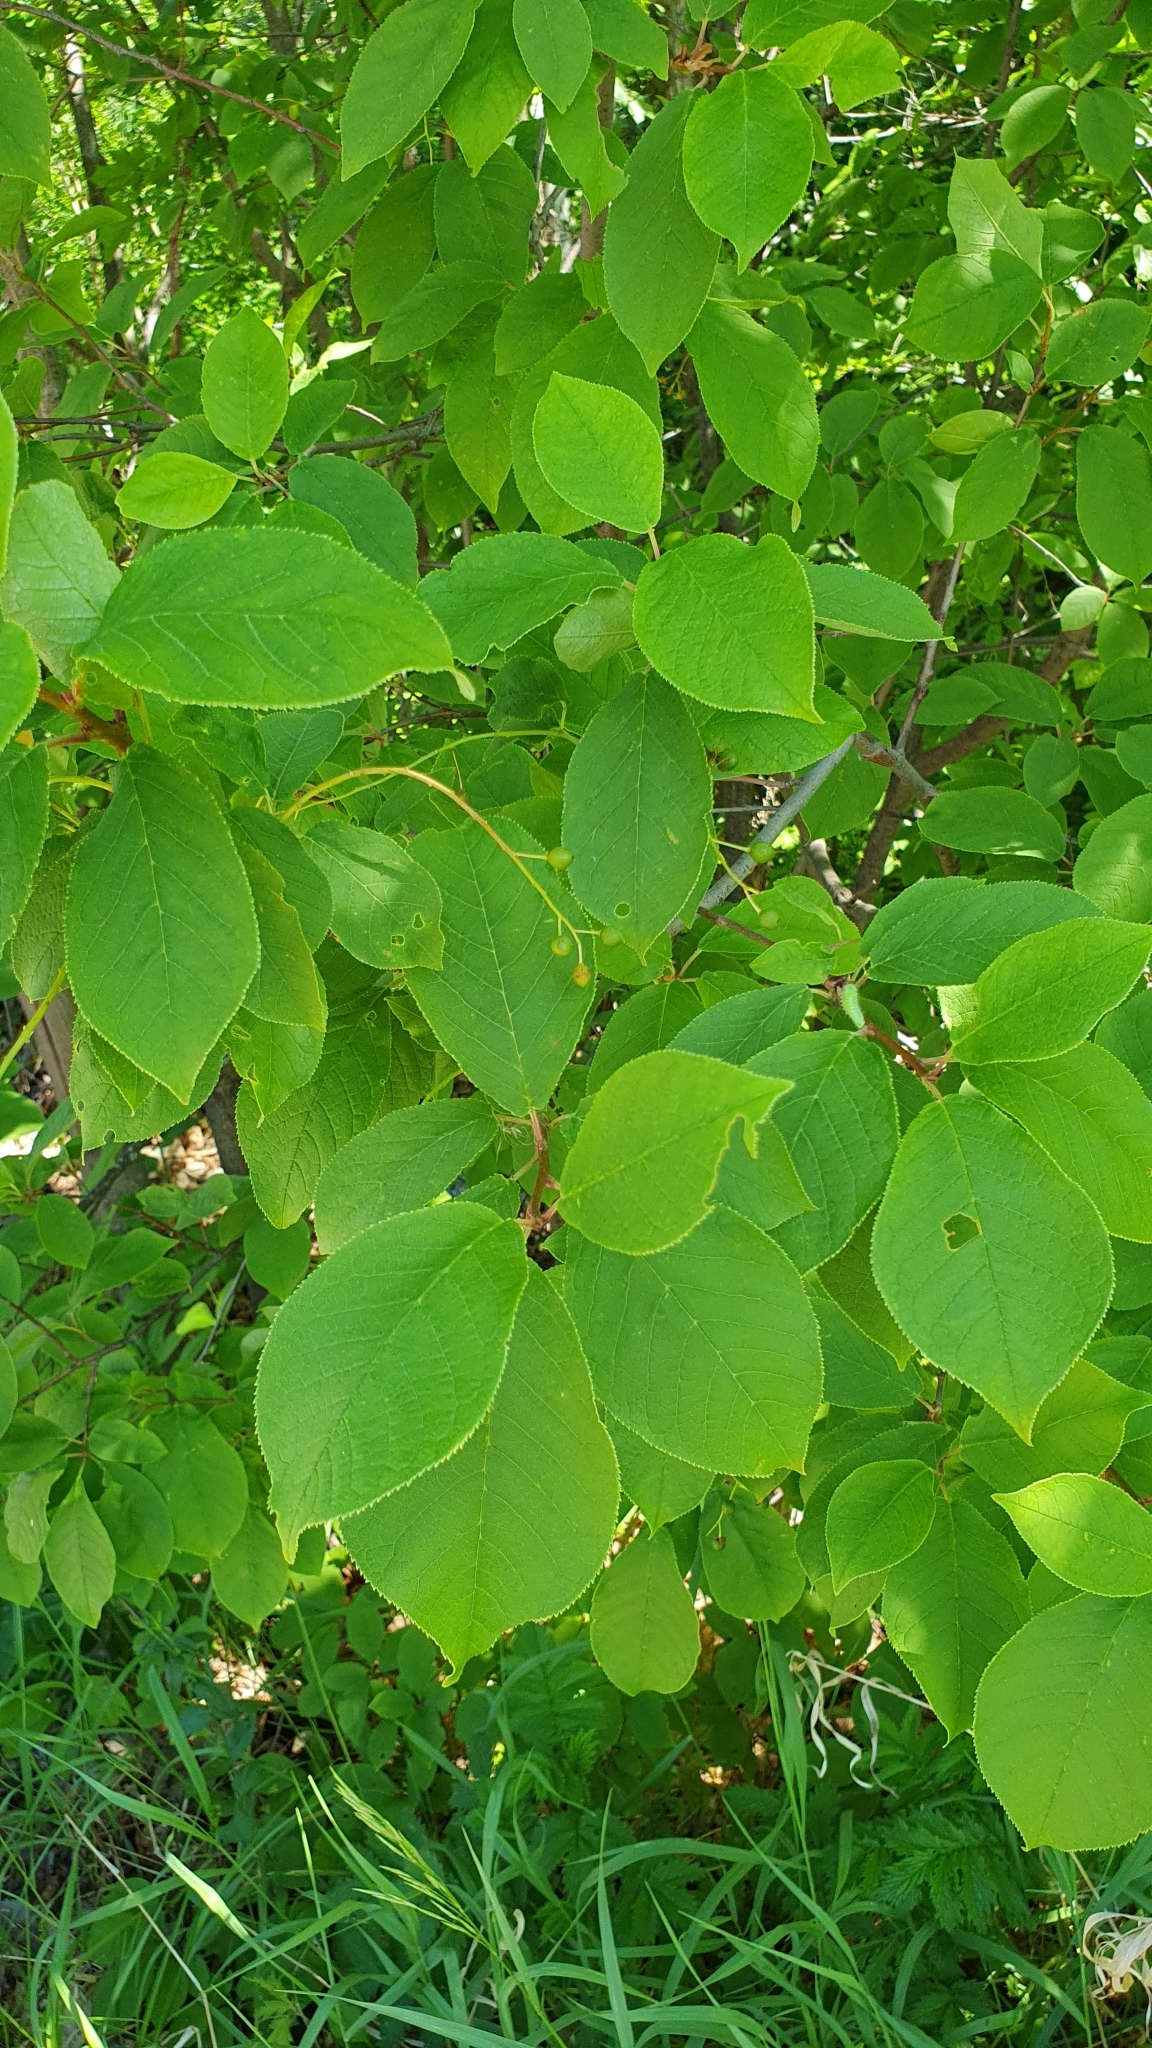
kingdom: Plantae
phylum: Tracheophyta
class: Magnoliopsida
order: Rosales
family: Rosaceae
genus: Prunus
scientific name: Prunus padus
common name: Bird cherry
